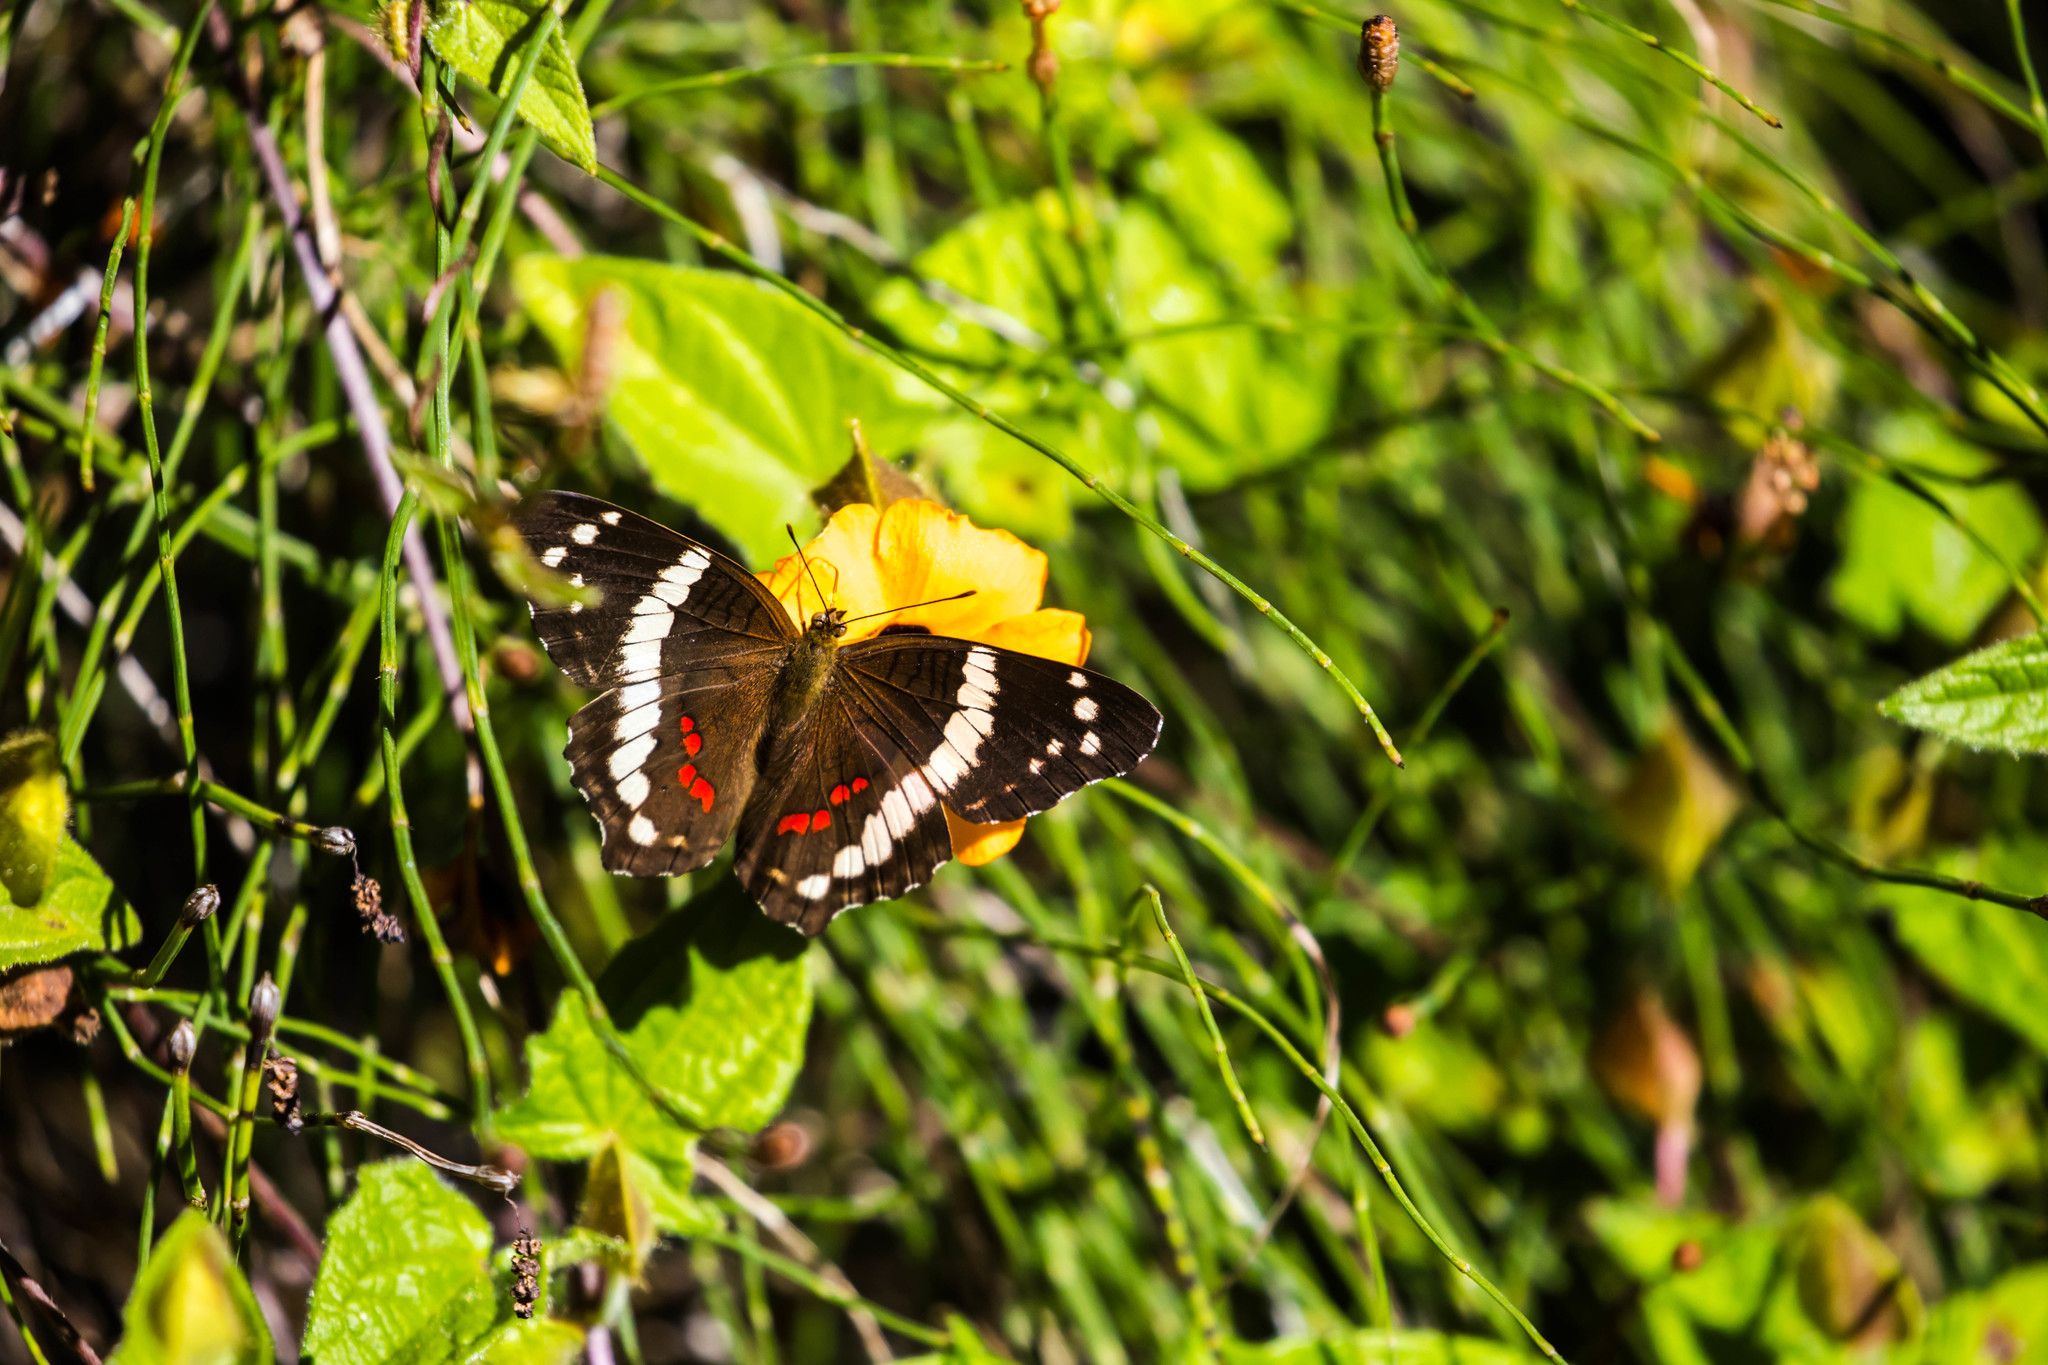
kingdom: Animalia
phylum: Arthropoda
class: Insecta
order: Lepidoptera
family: Nymphalidae
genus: Anartia
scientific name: Anartia fatima
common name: Banded peacock
